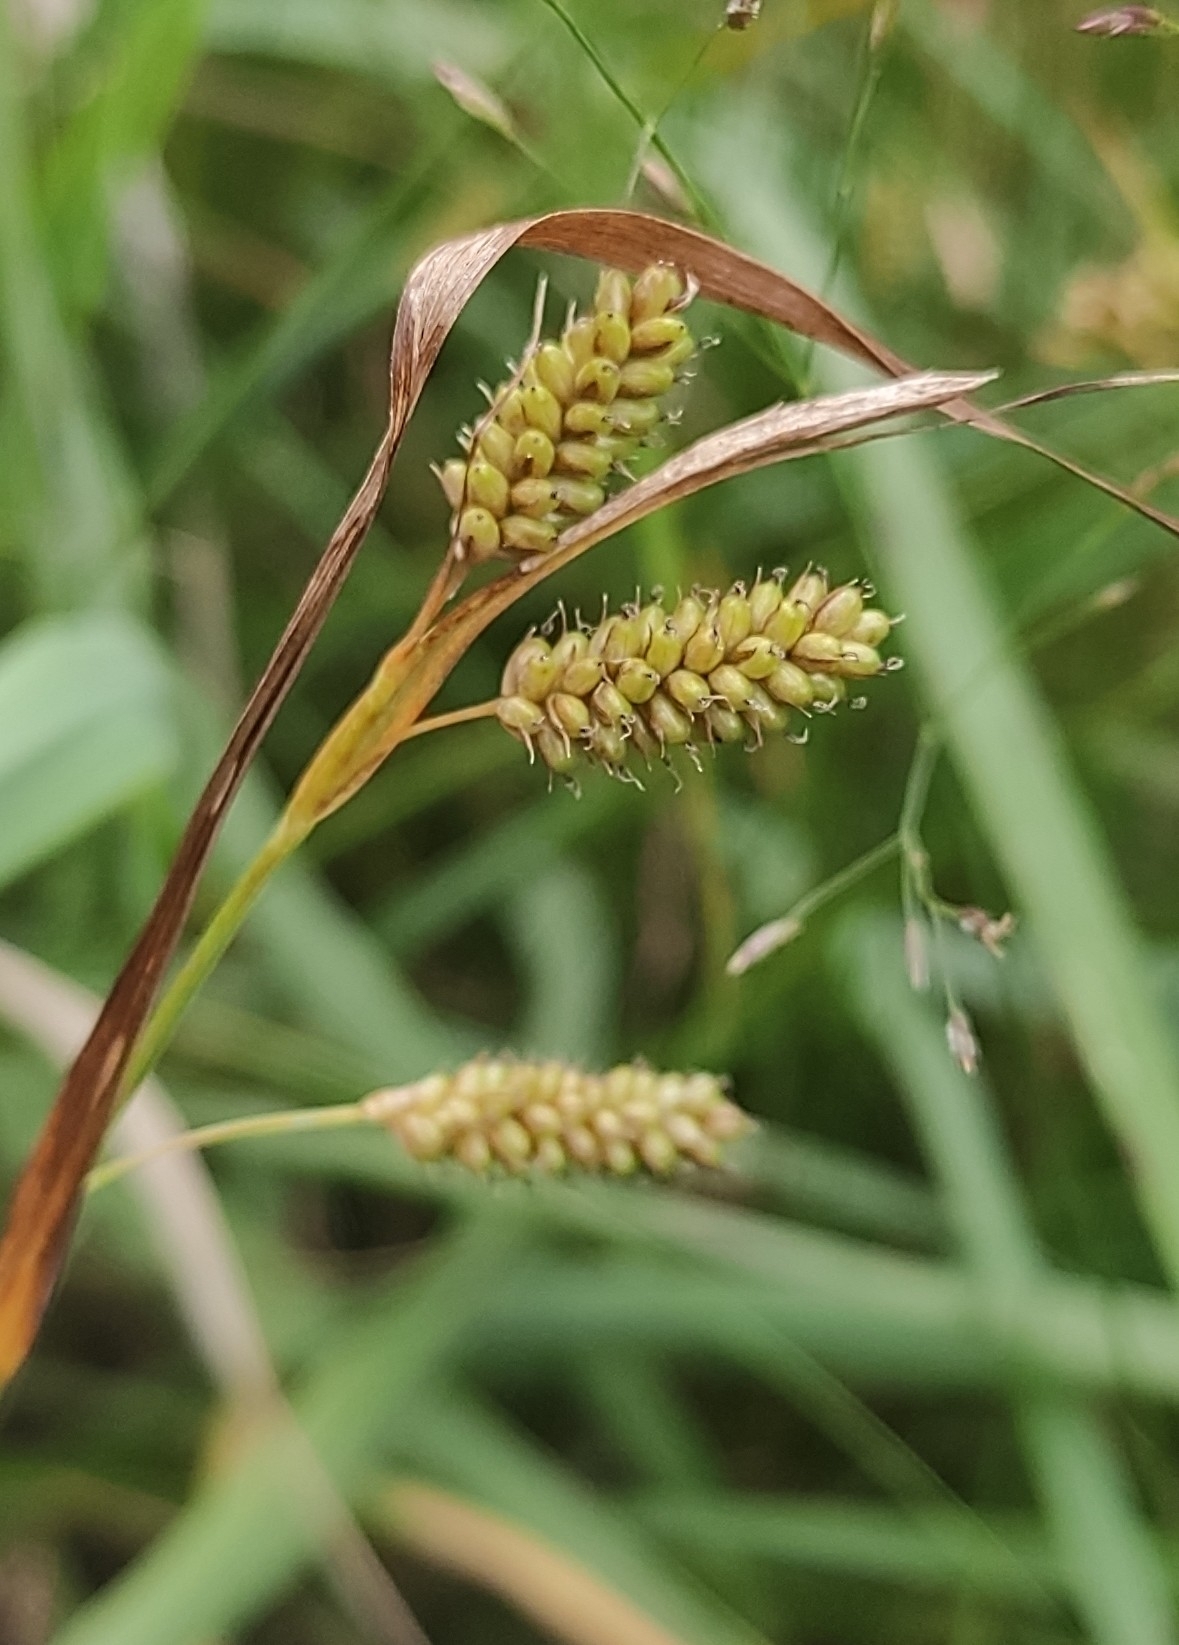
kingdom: Plantae
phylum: Tracheophyta
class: Liliopsida
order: Poales
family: Cyperaceae
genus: Carex
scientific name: Carex pallescens
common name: Pale sedge
